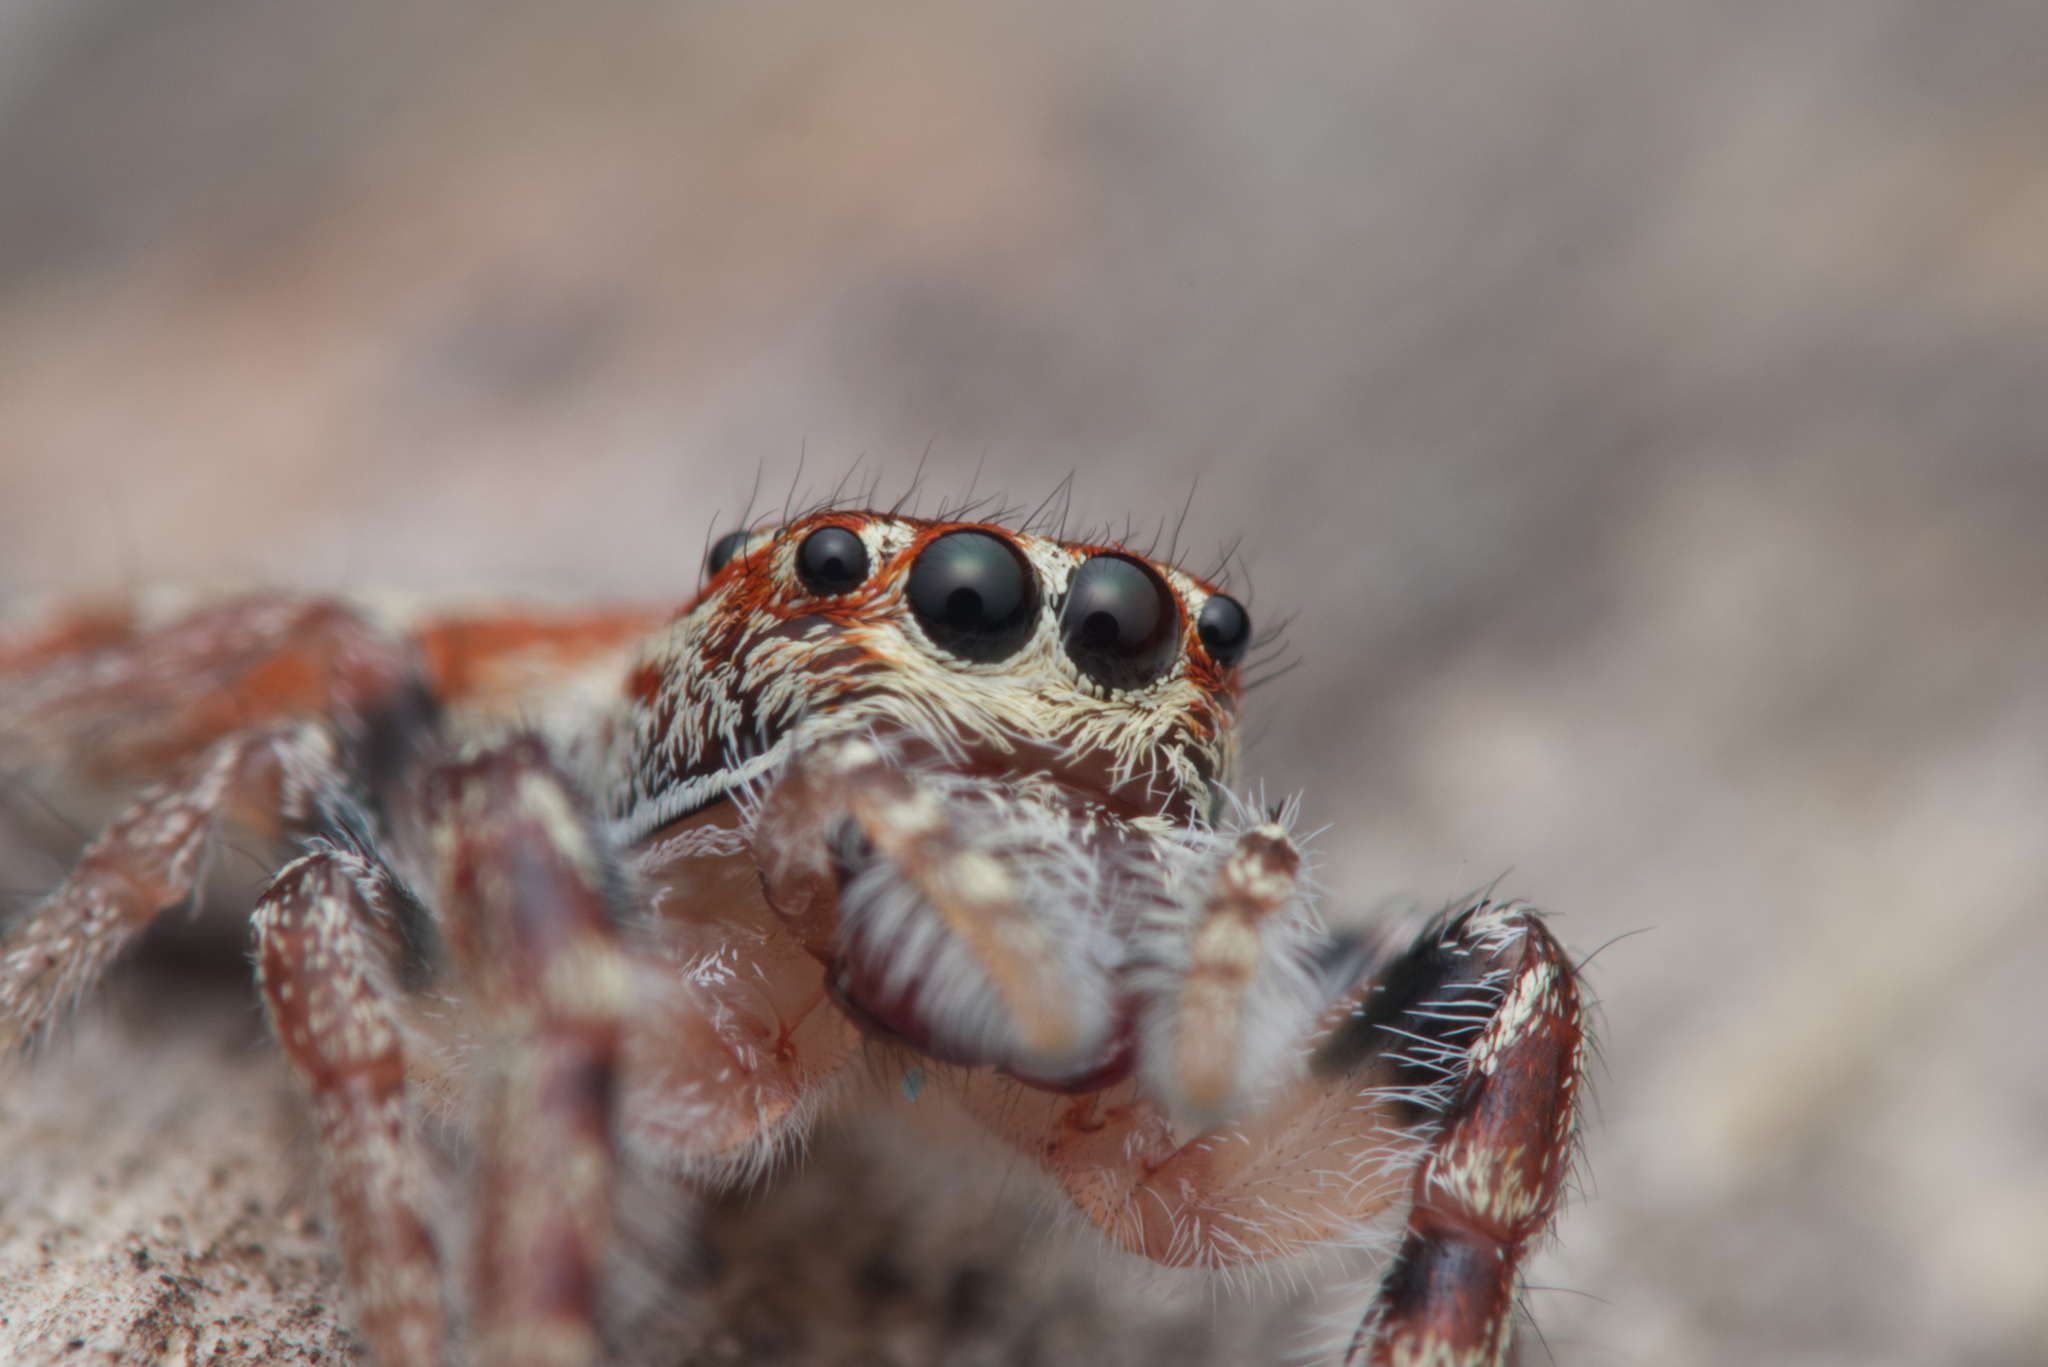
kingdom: Animalia
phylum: Arthropoda
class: Arachnida
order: Araneae
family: Salticidae
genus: Opisthoncus
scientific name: Opisthoncus alborufescens
